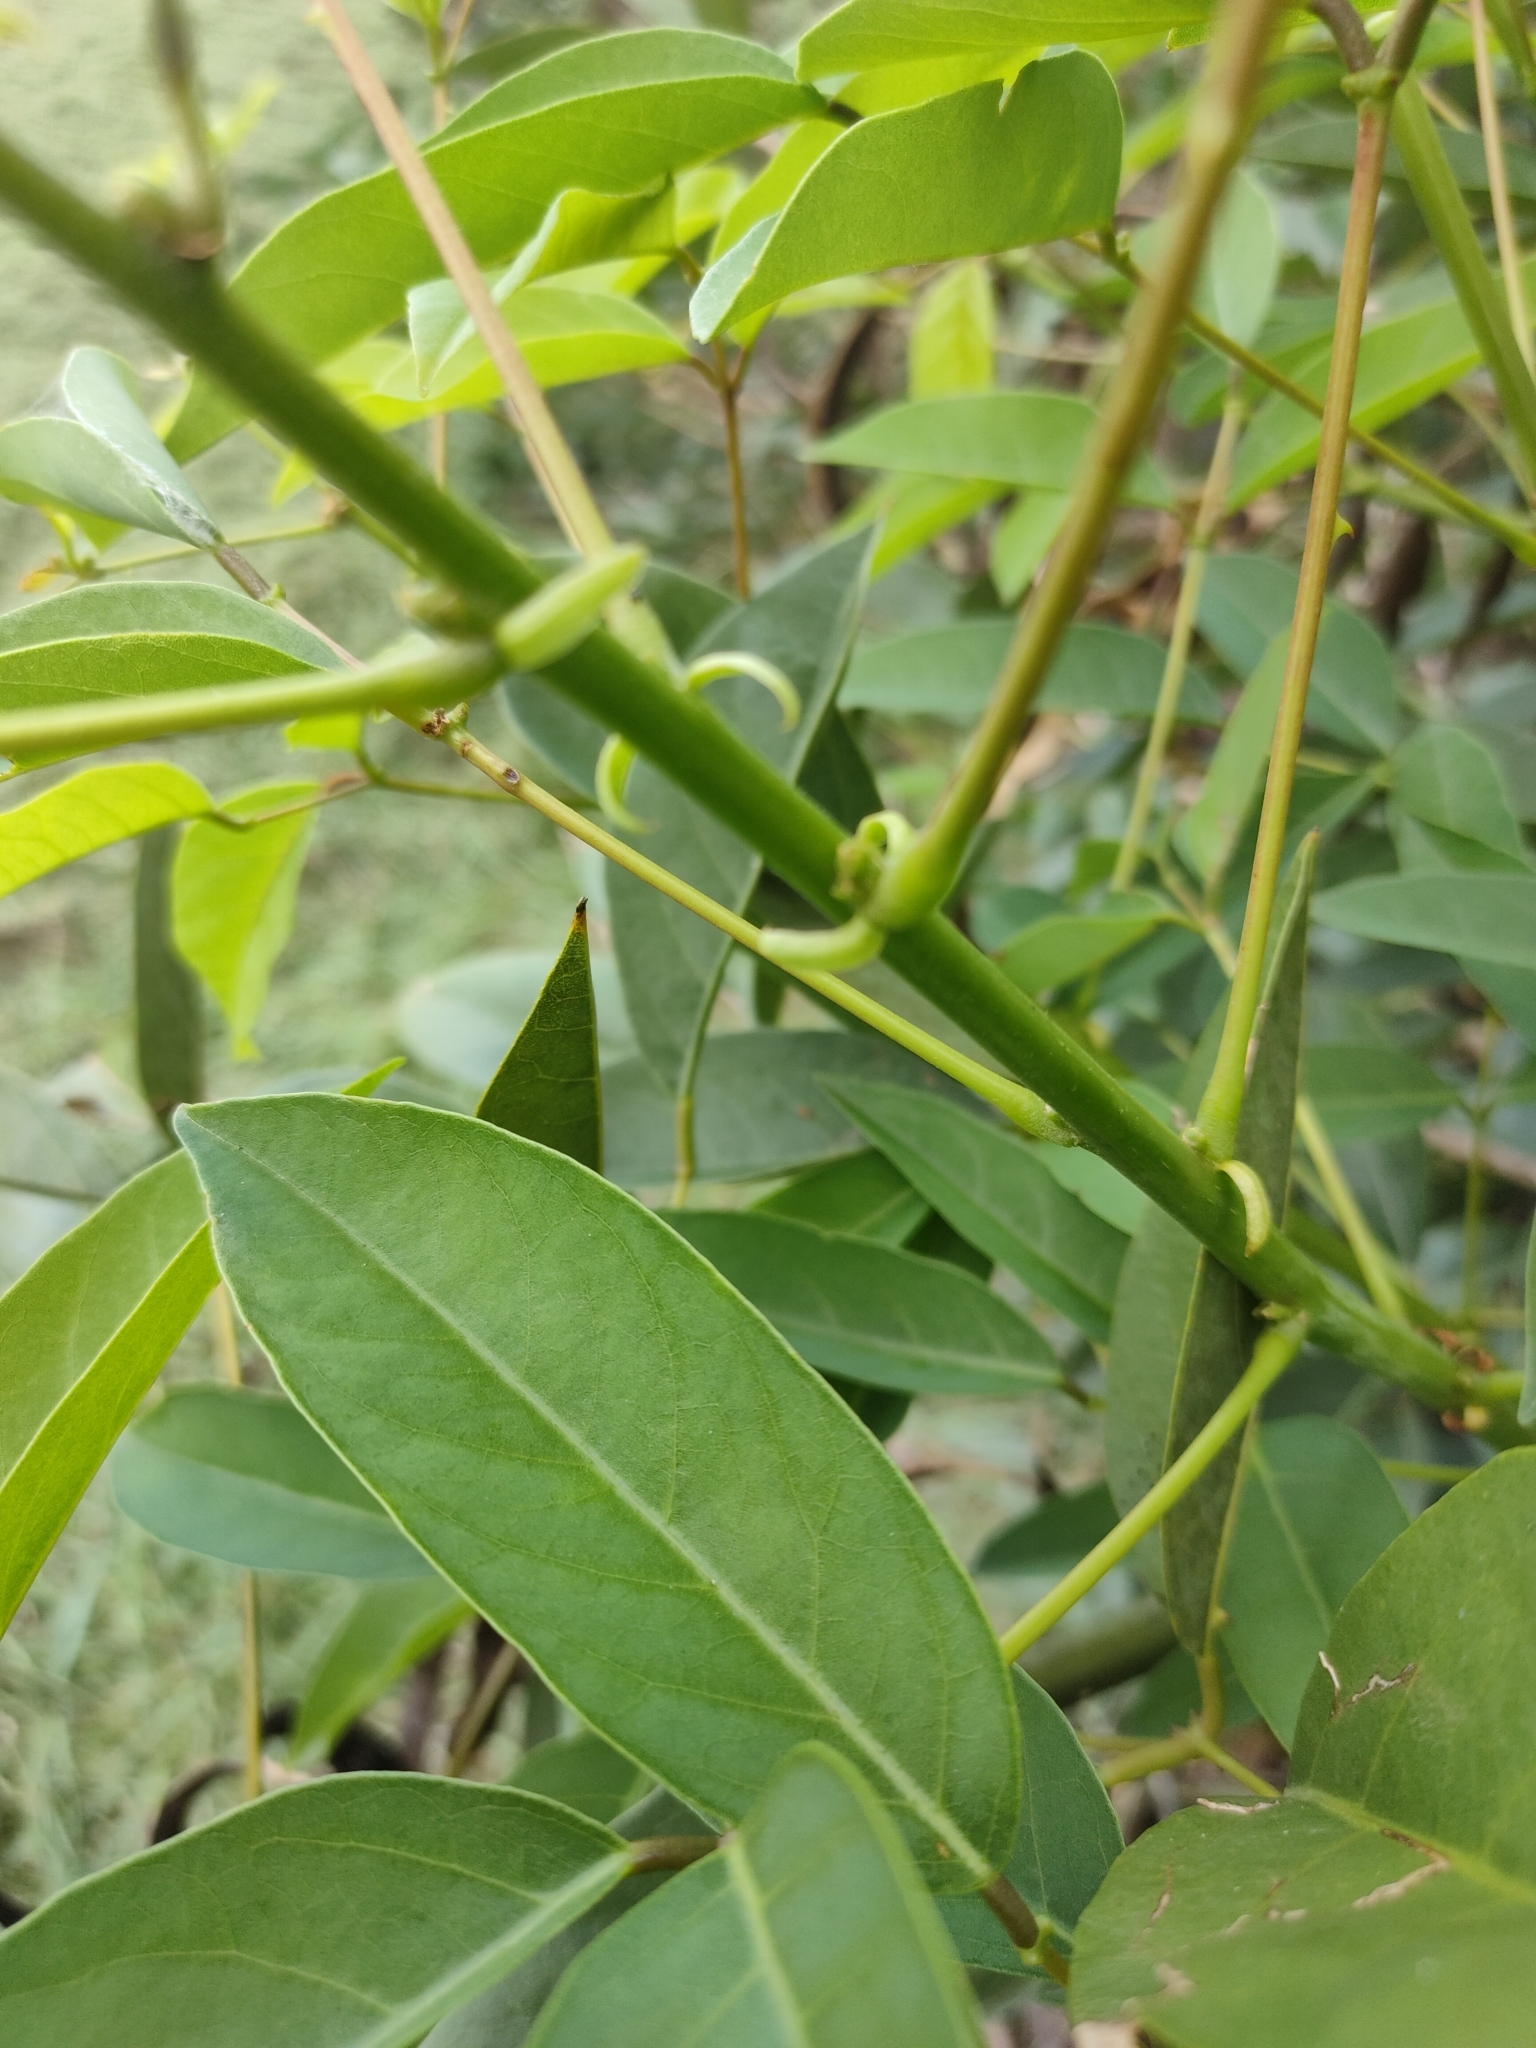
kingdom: Plantae
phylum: Tracheophyta
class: Magnoliopsida
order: Fabales
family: Fabaceae
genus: Erythrina
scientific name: Erythrina crista-galli
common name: Cockspur coral tree
